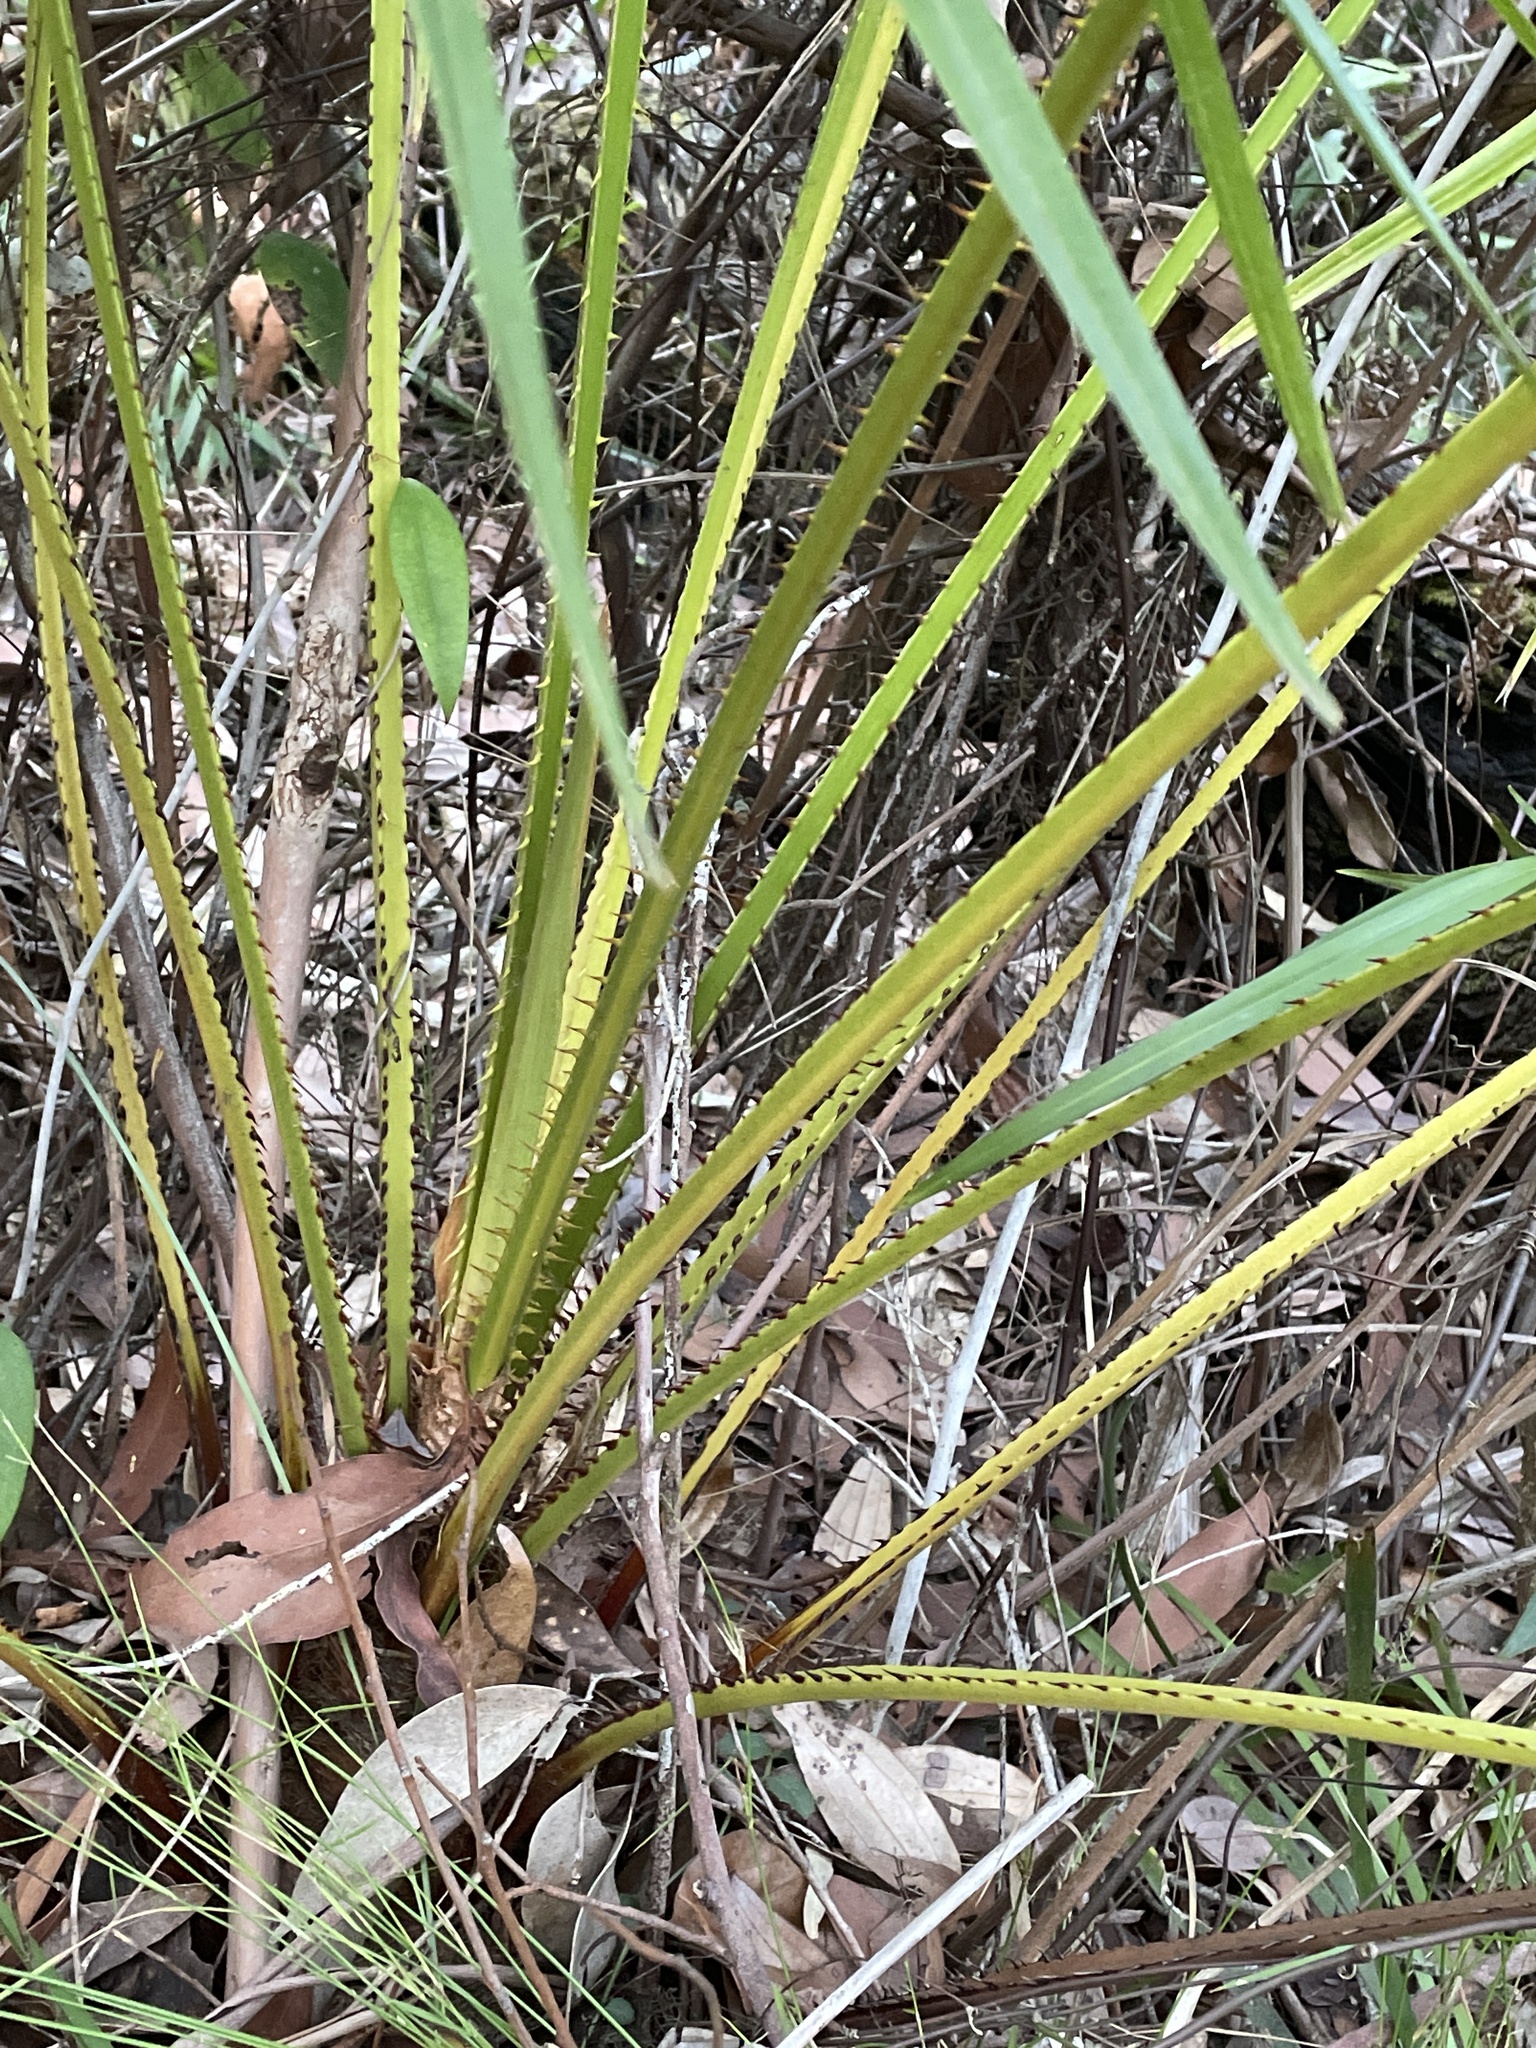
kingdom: Plantae
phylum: Tracheophyta
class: Liliopsida
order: Arecales
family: Arecaceae
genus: Livistona
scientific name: Livistona australis
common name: Cabbage fan palm
